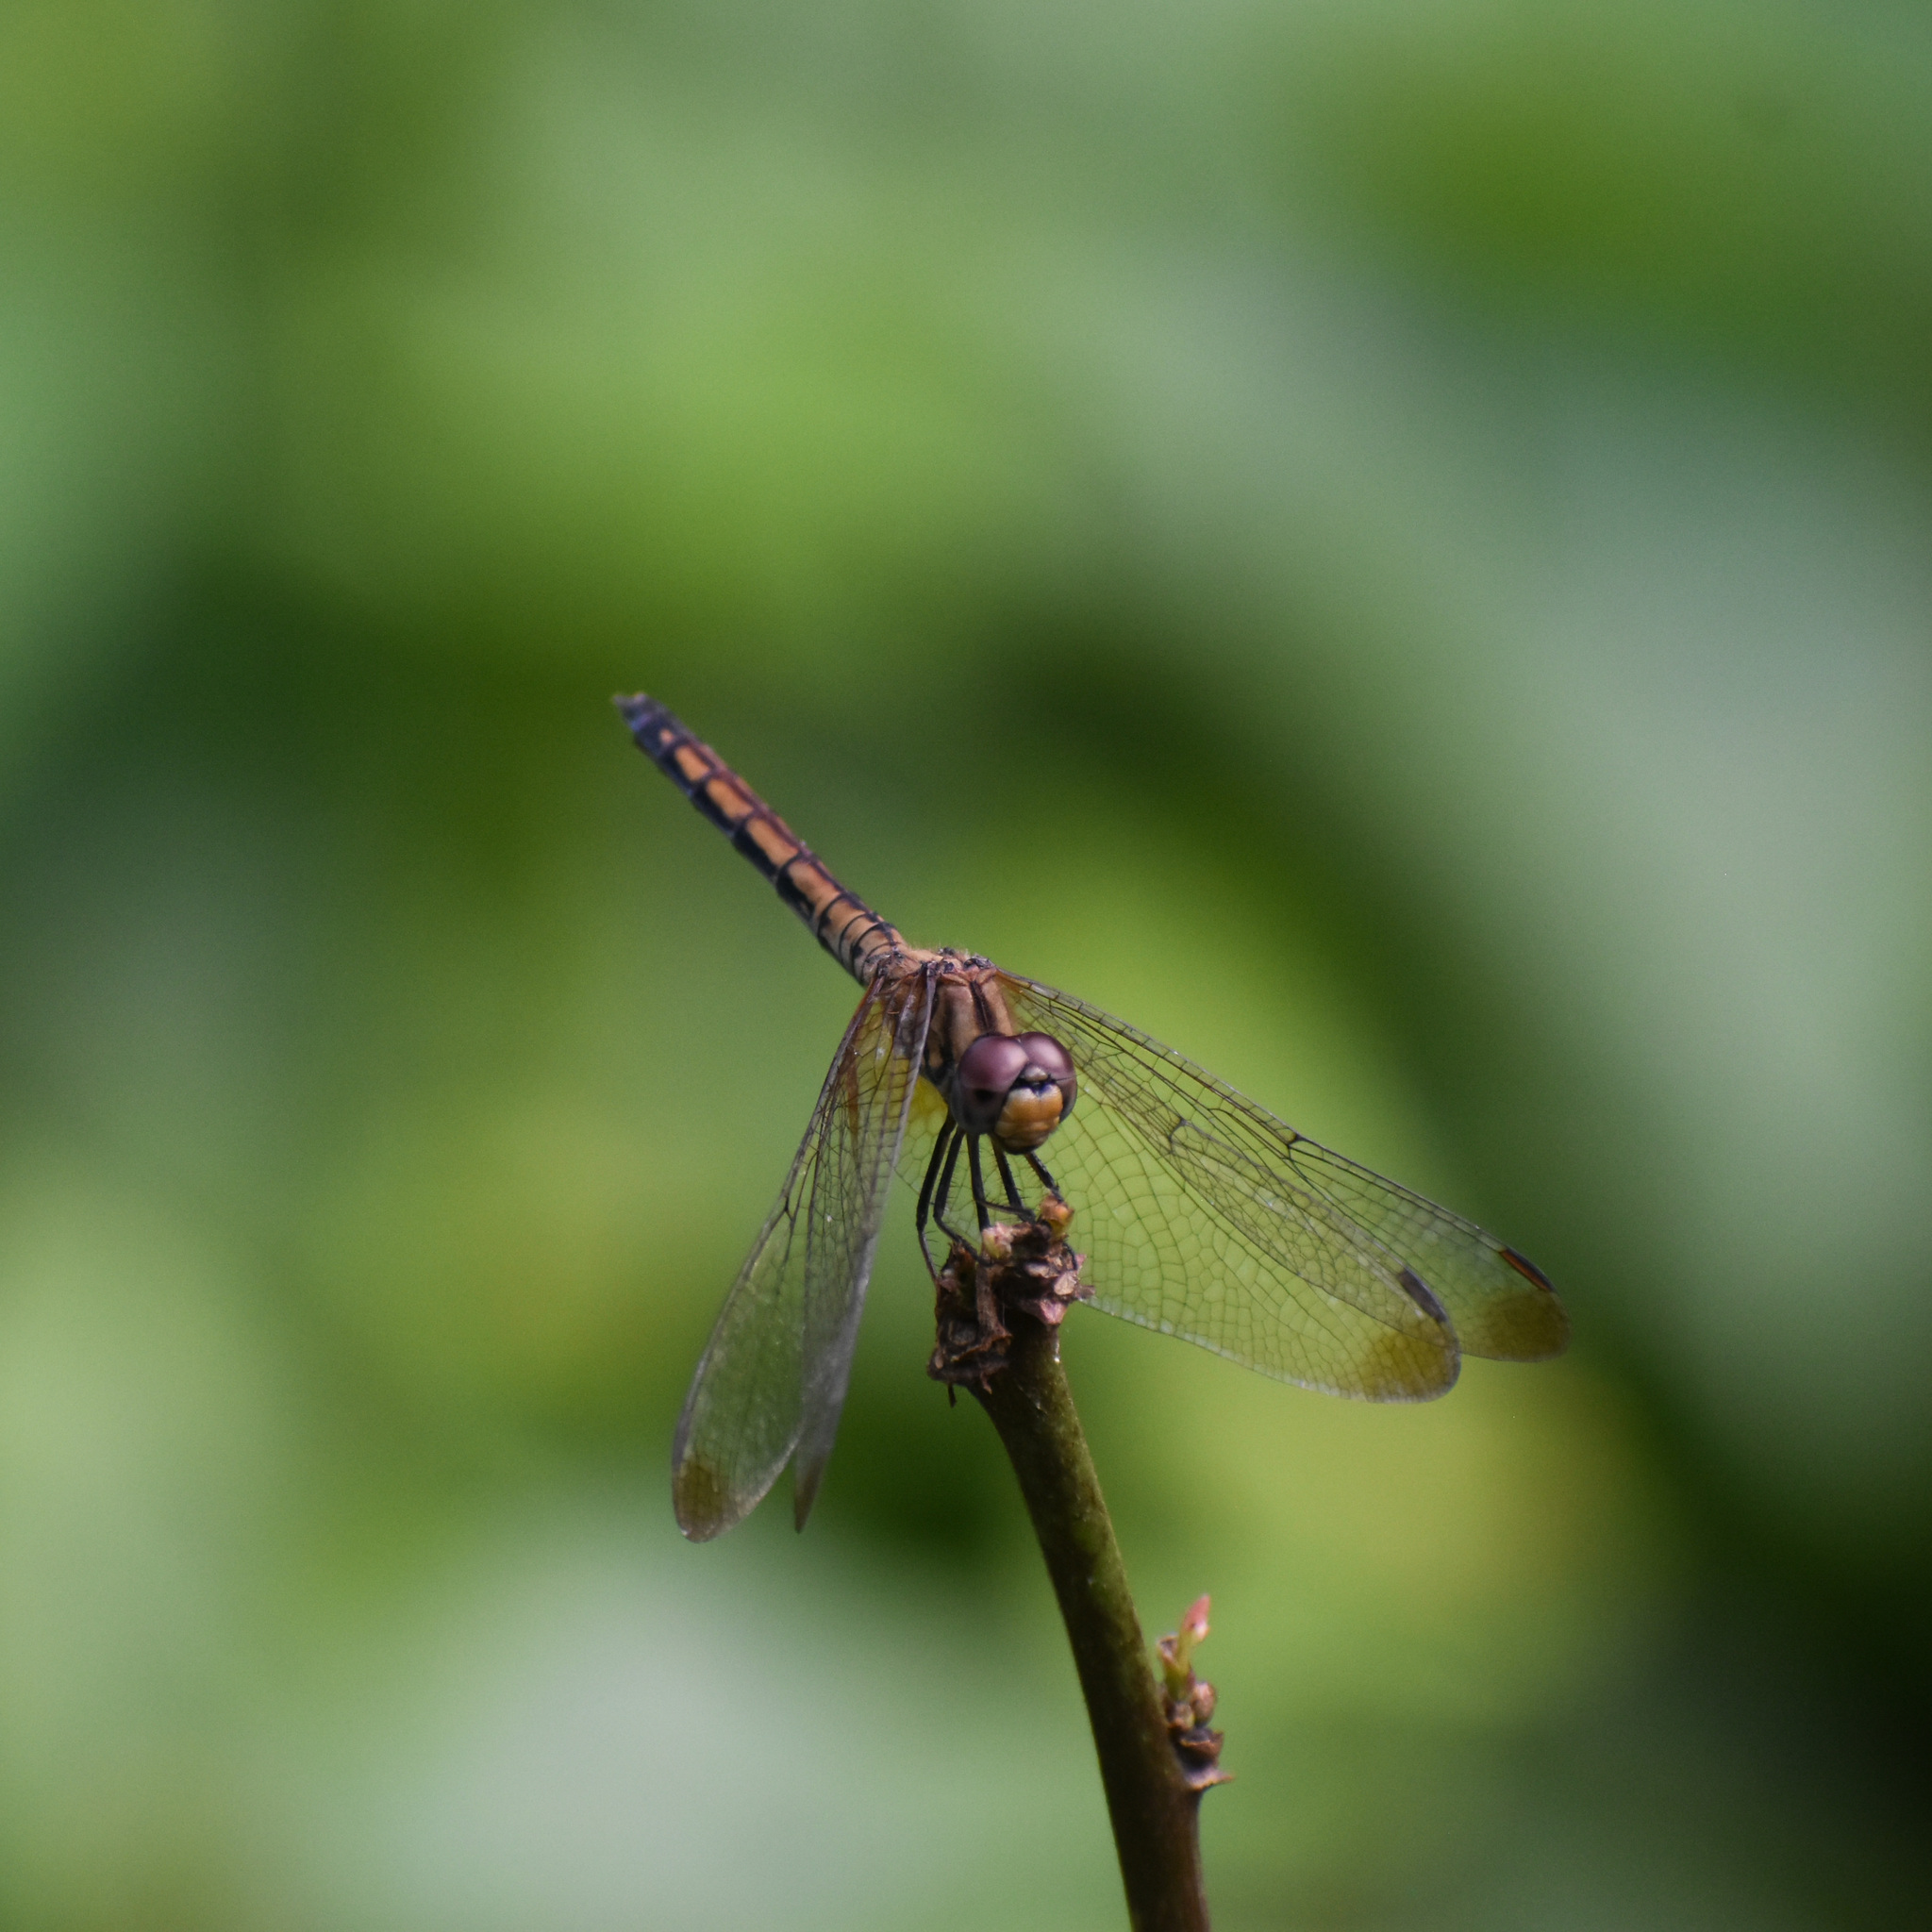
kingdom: Animalia
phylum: Arthropoda
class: Insecta
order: Odonata
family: Libellulidae
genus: Trithemis
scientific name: Trithemis aurora
